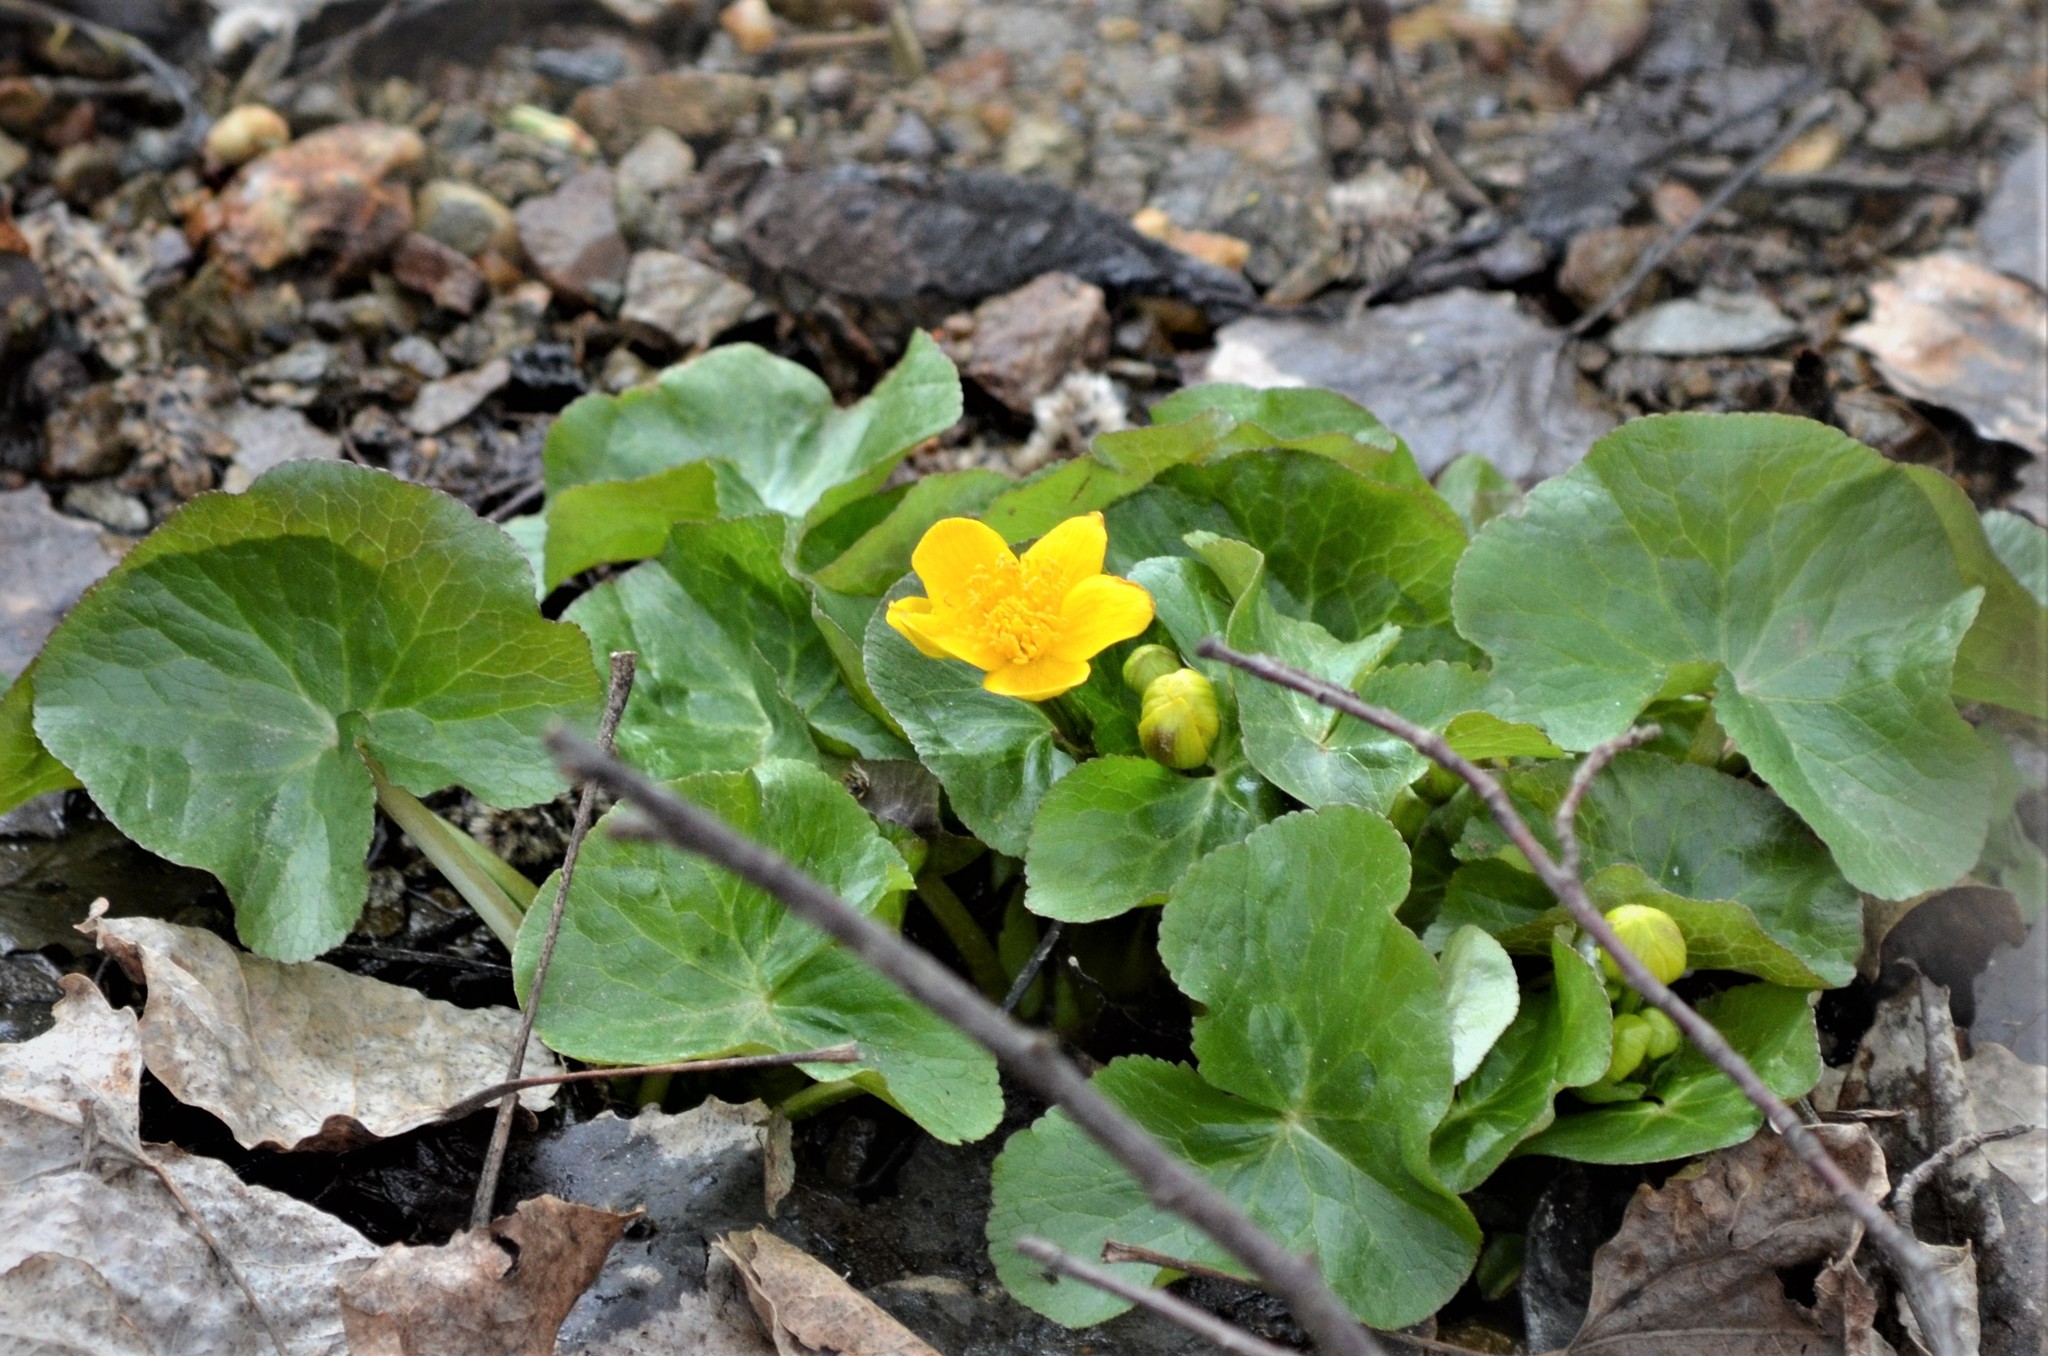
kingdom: Plantae
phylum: Tracheophyta
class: Magnoliopsida
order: Ranunculales
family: Ranunculaceae
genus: Caltha
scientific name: Caltha palustris
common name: Marsh marigold
